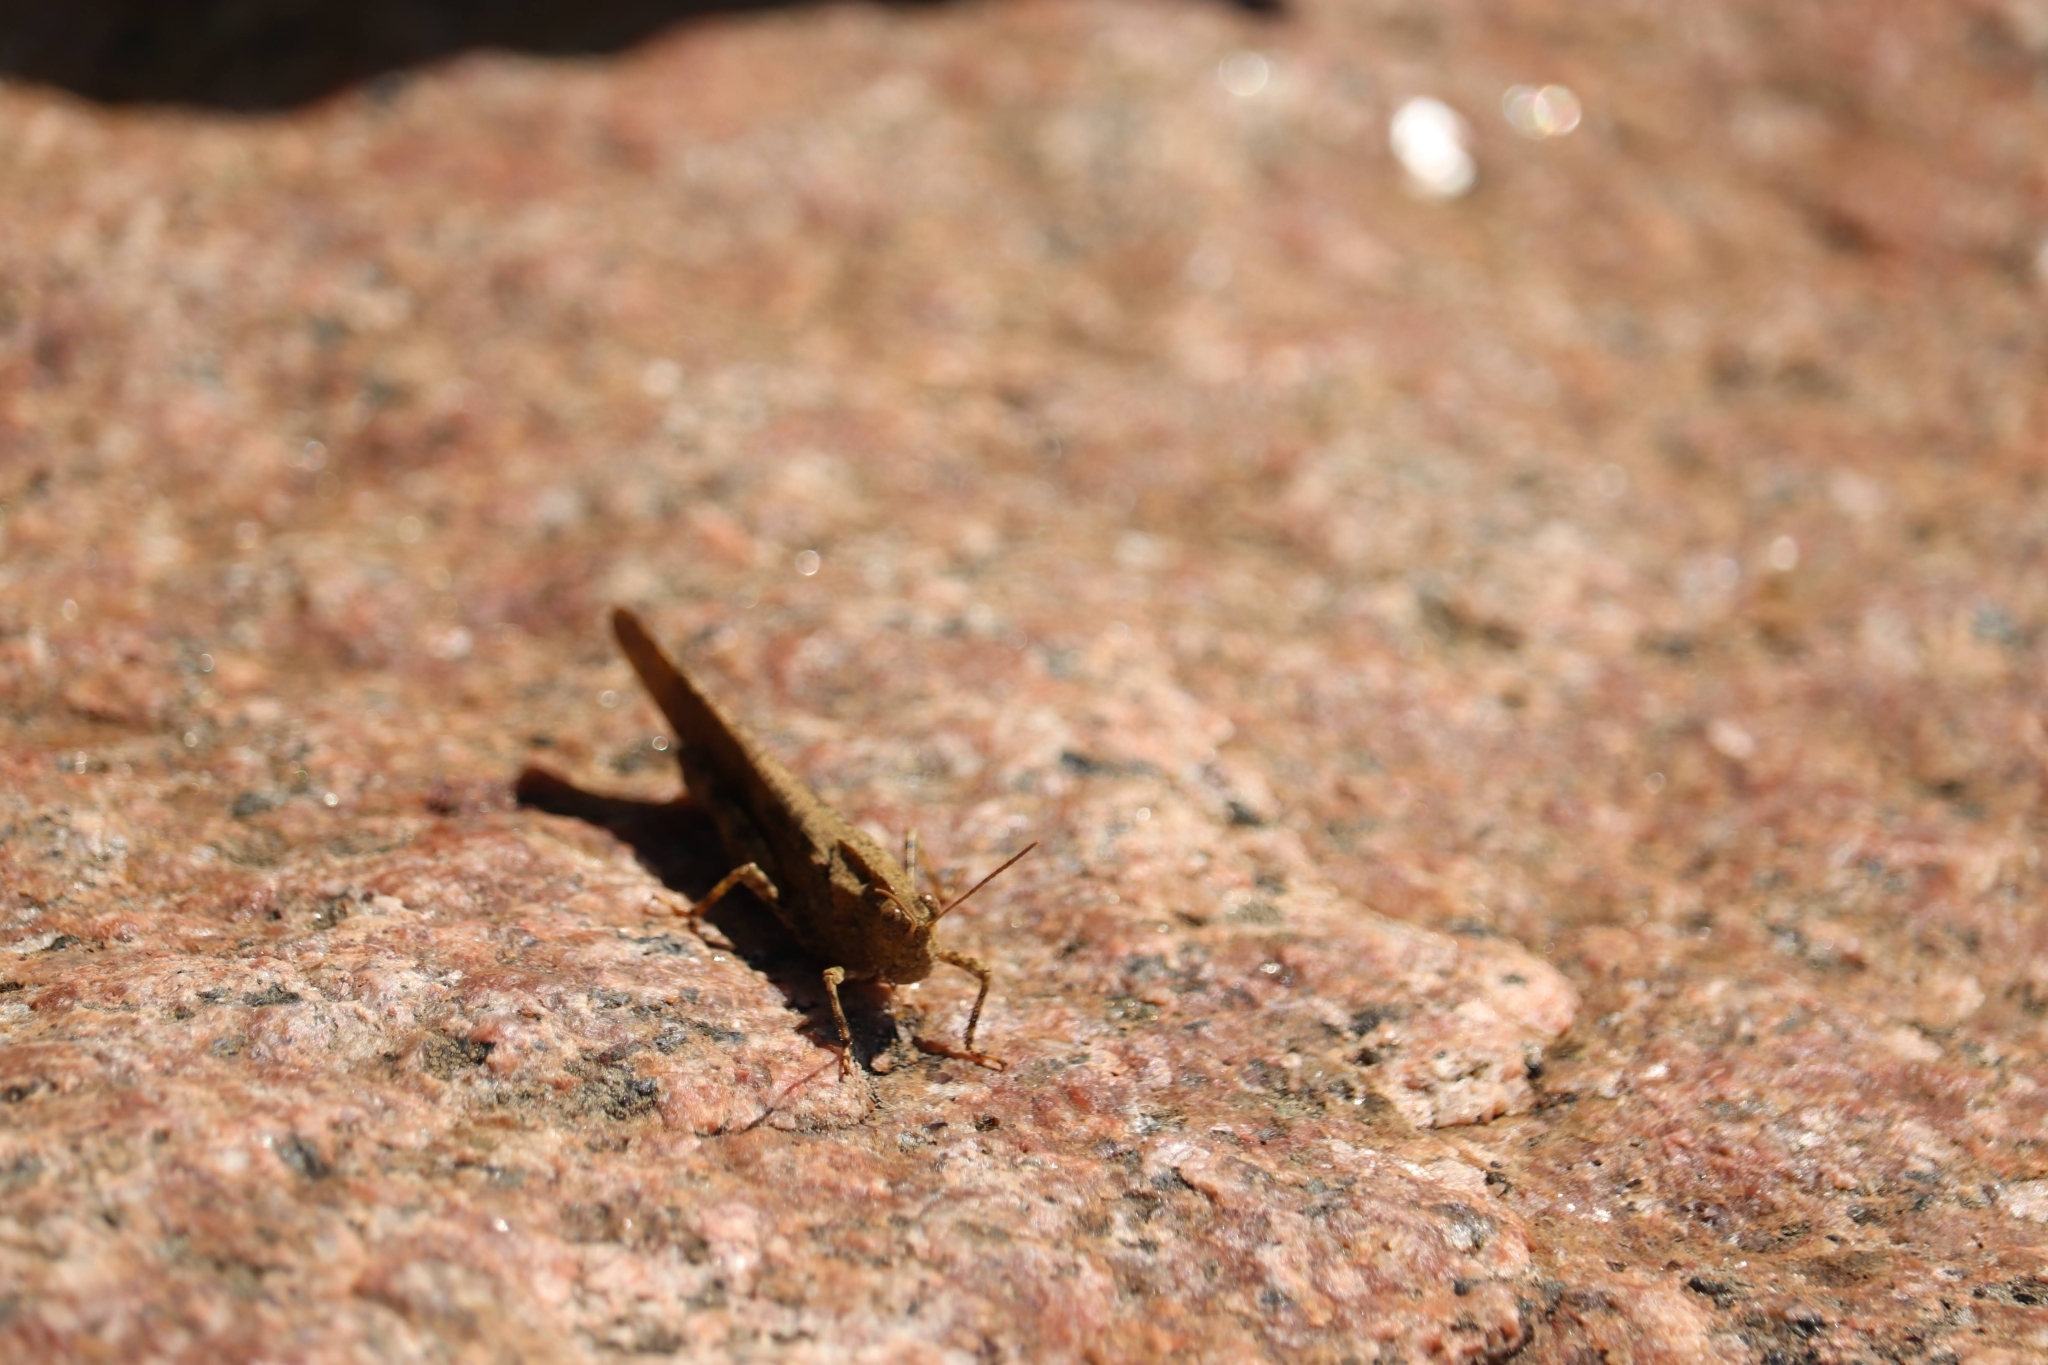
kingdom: Animalia
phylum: Arthropoda
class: Insecta
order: Orthoptera
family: Acrididae
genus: Dissosteira
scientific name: Dissosteira carolina
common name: Carolina grasshopper
